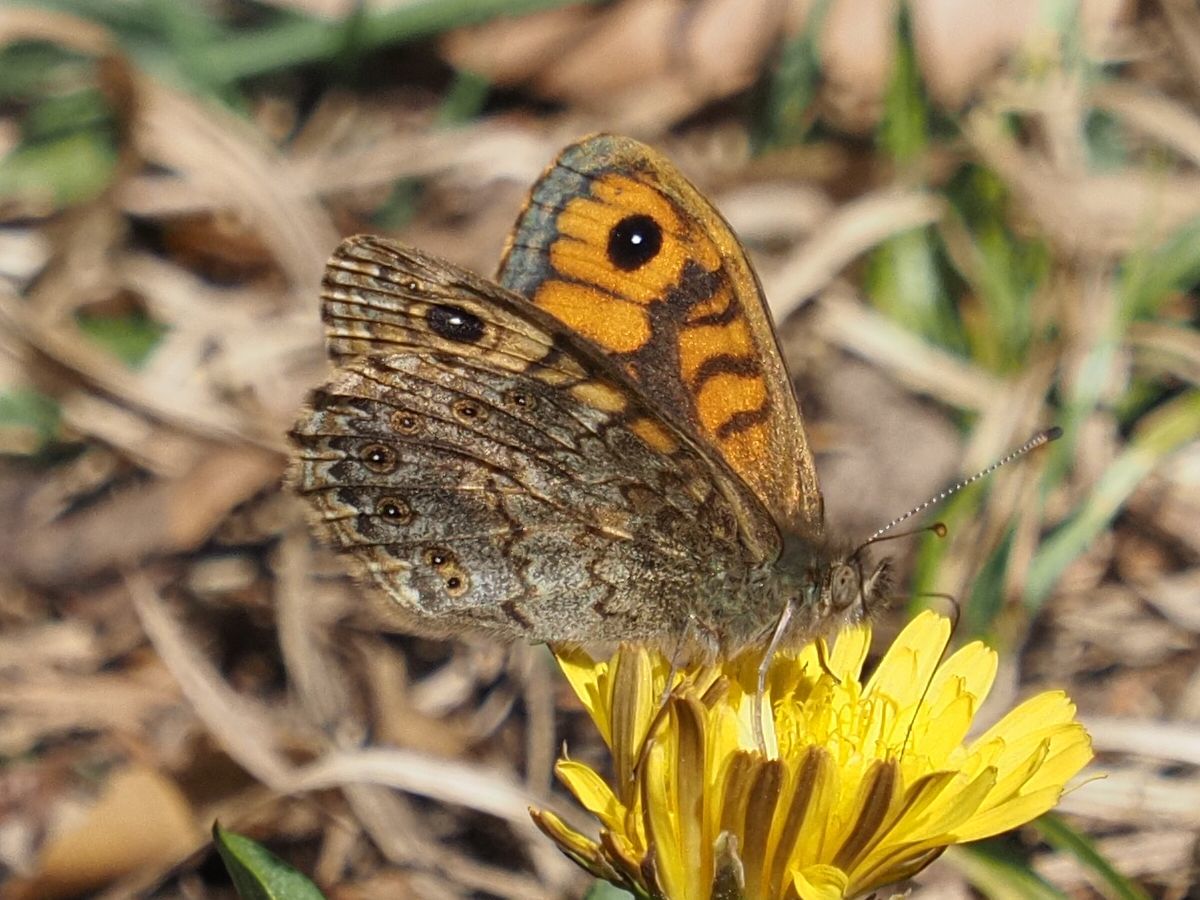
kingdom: Animalia
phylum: Arthropoda
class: Insecta
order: Lepidoptera
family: Nymphalidae
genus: Pararge
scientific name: Pararge Lasiommata megera
